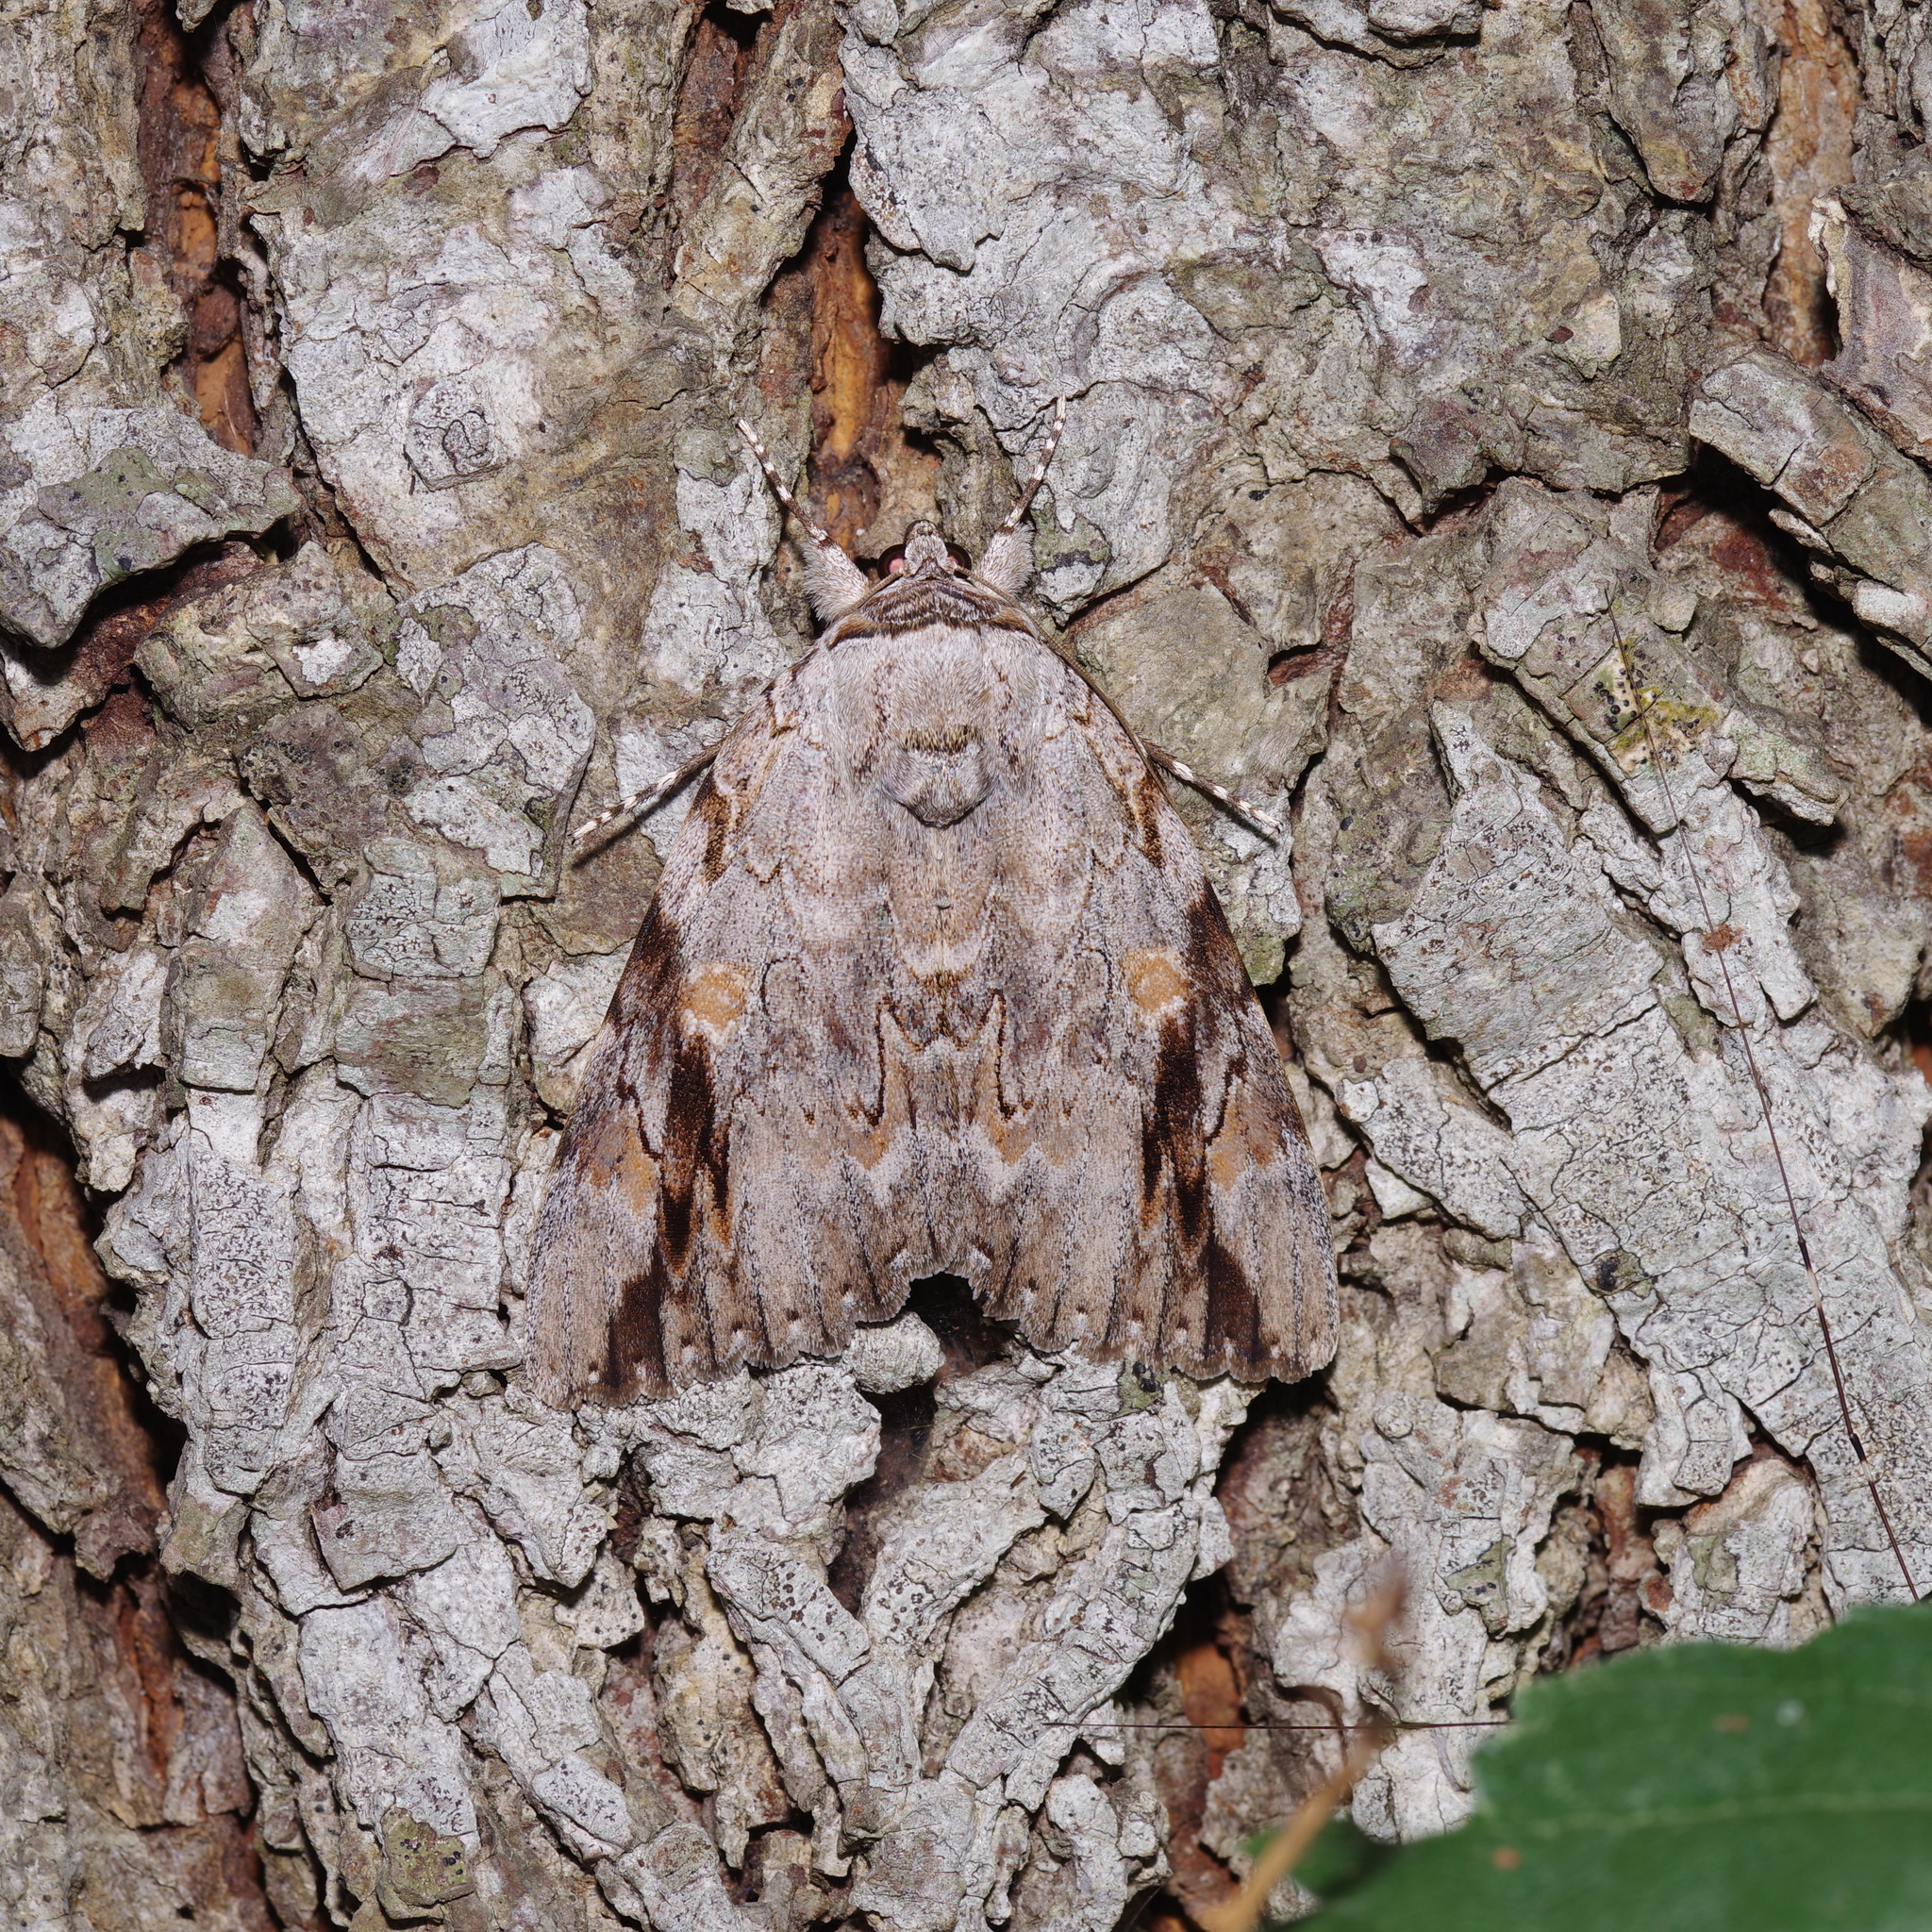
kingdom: Animalia
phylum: Arthropoda
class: Insecta
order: Lepidoptera
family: Erebidae
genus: Catocala
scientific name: Catocala maestosa
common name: Sad underwing
